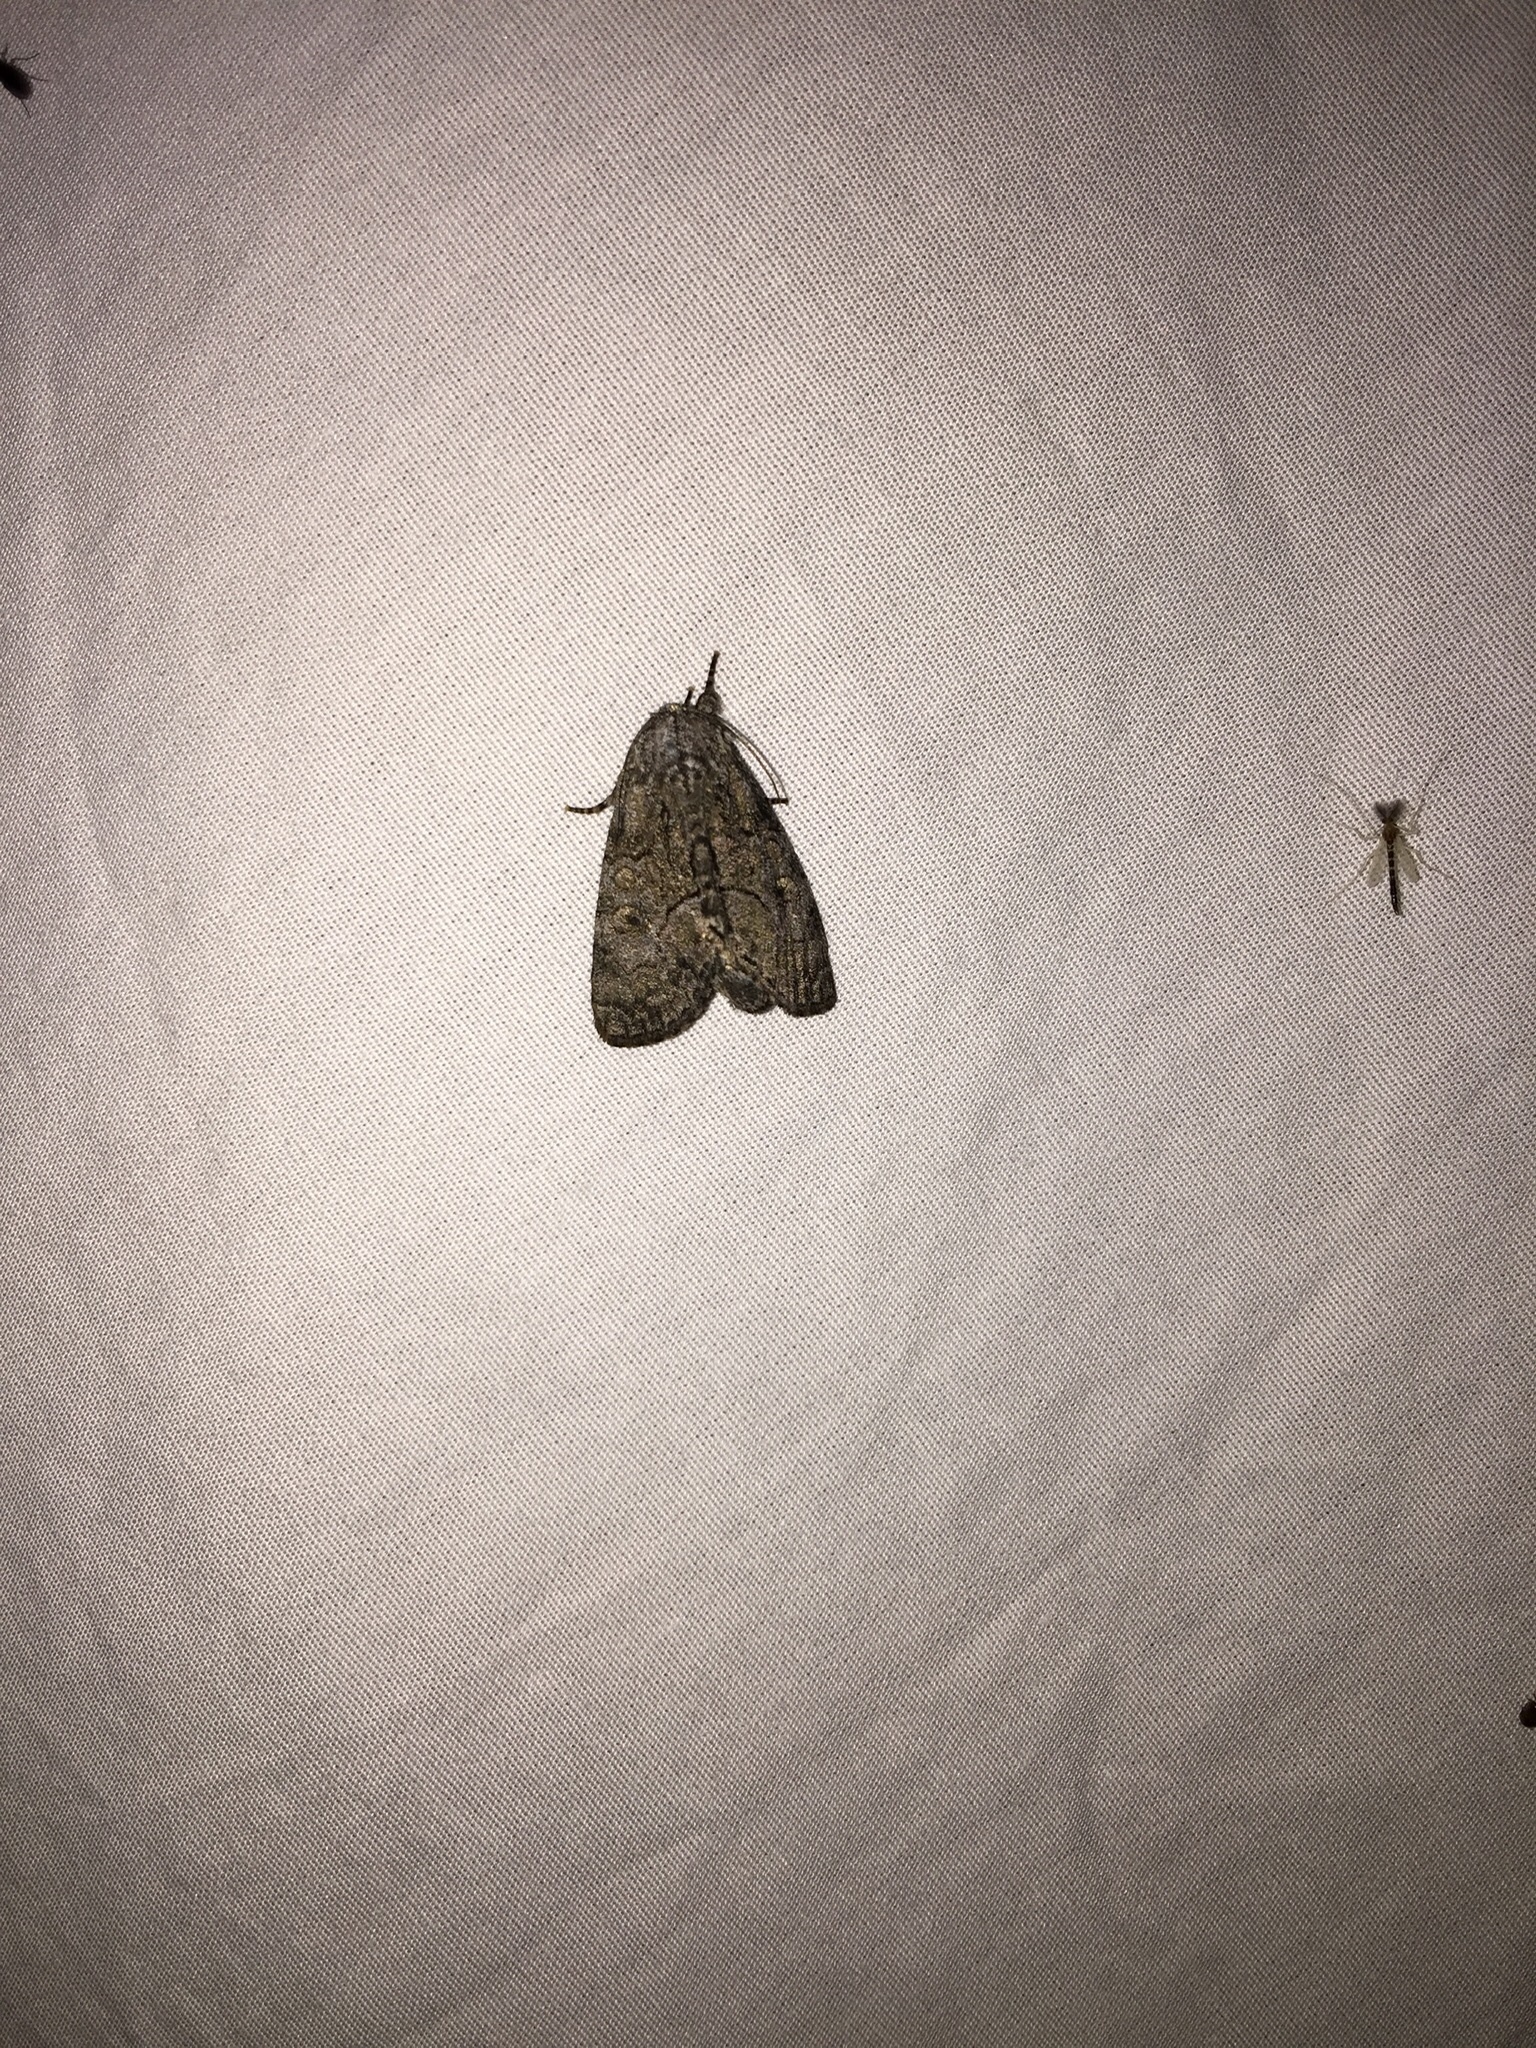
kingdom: Animalia
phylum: Arthropoda
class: Insecta
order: Lepidoptera
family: Noctuidae
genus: Raphia
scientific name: Raphia frater
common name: Brother
